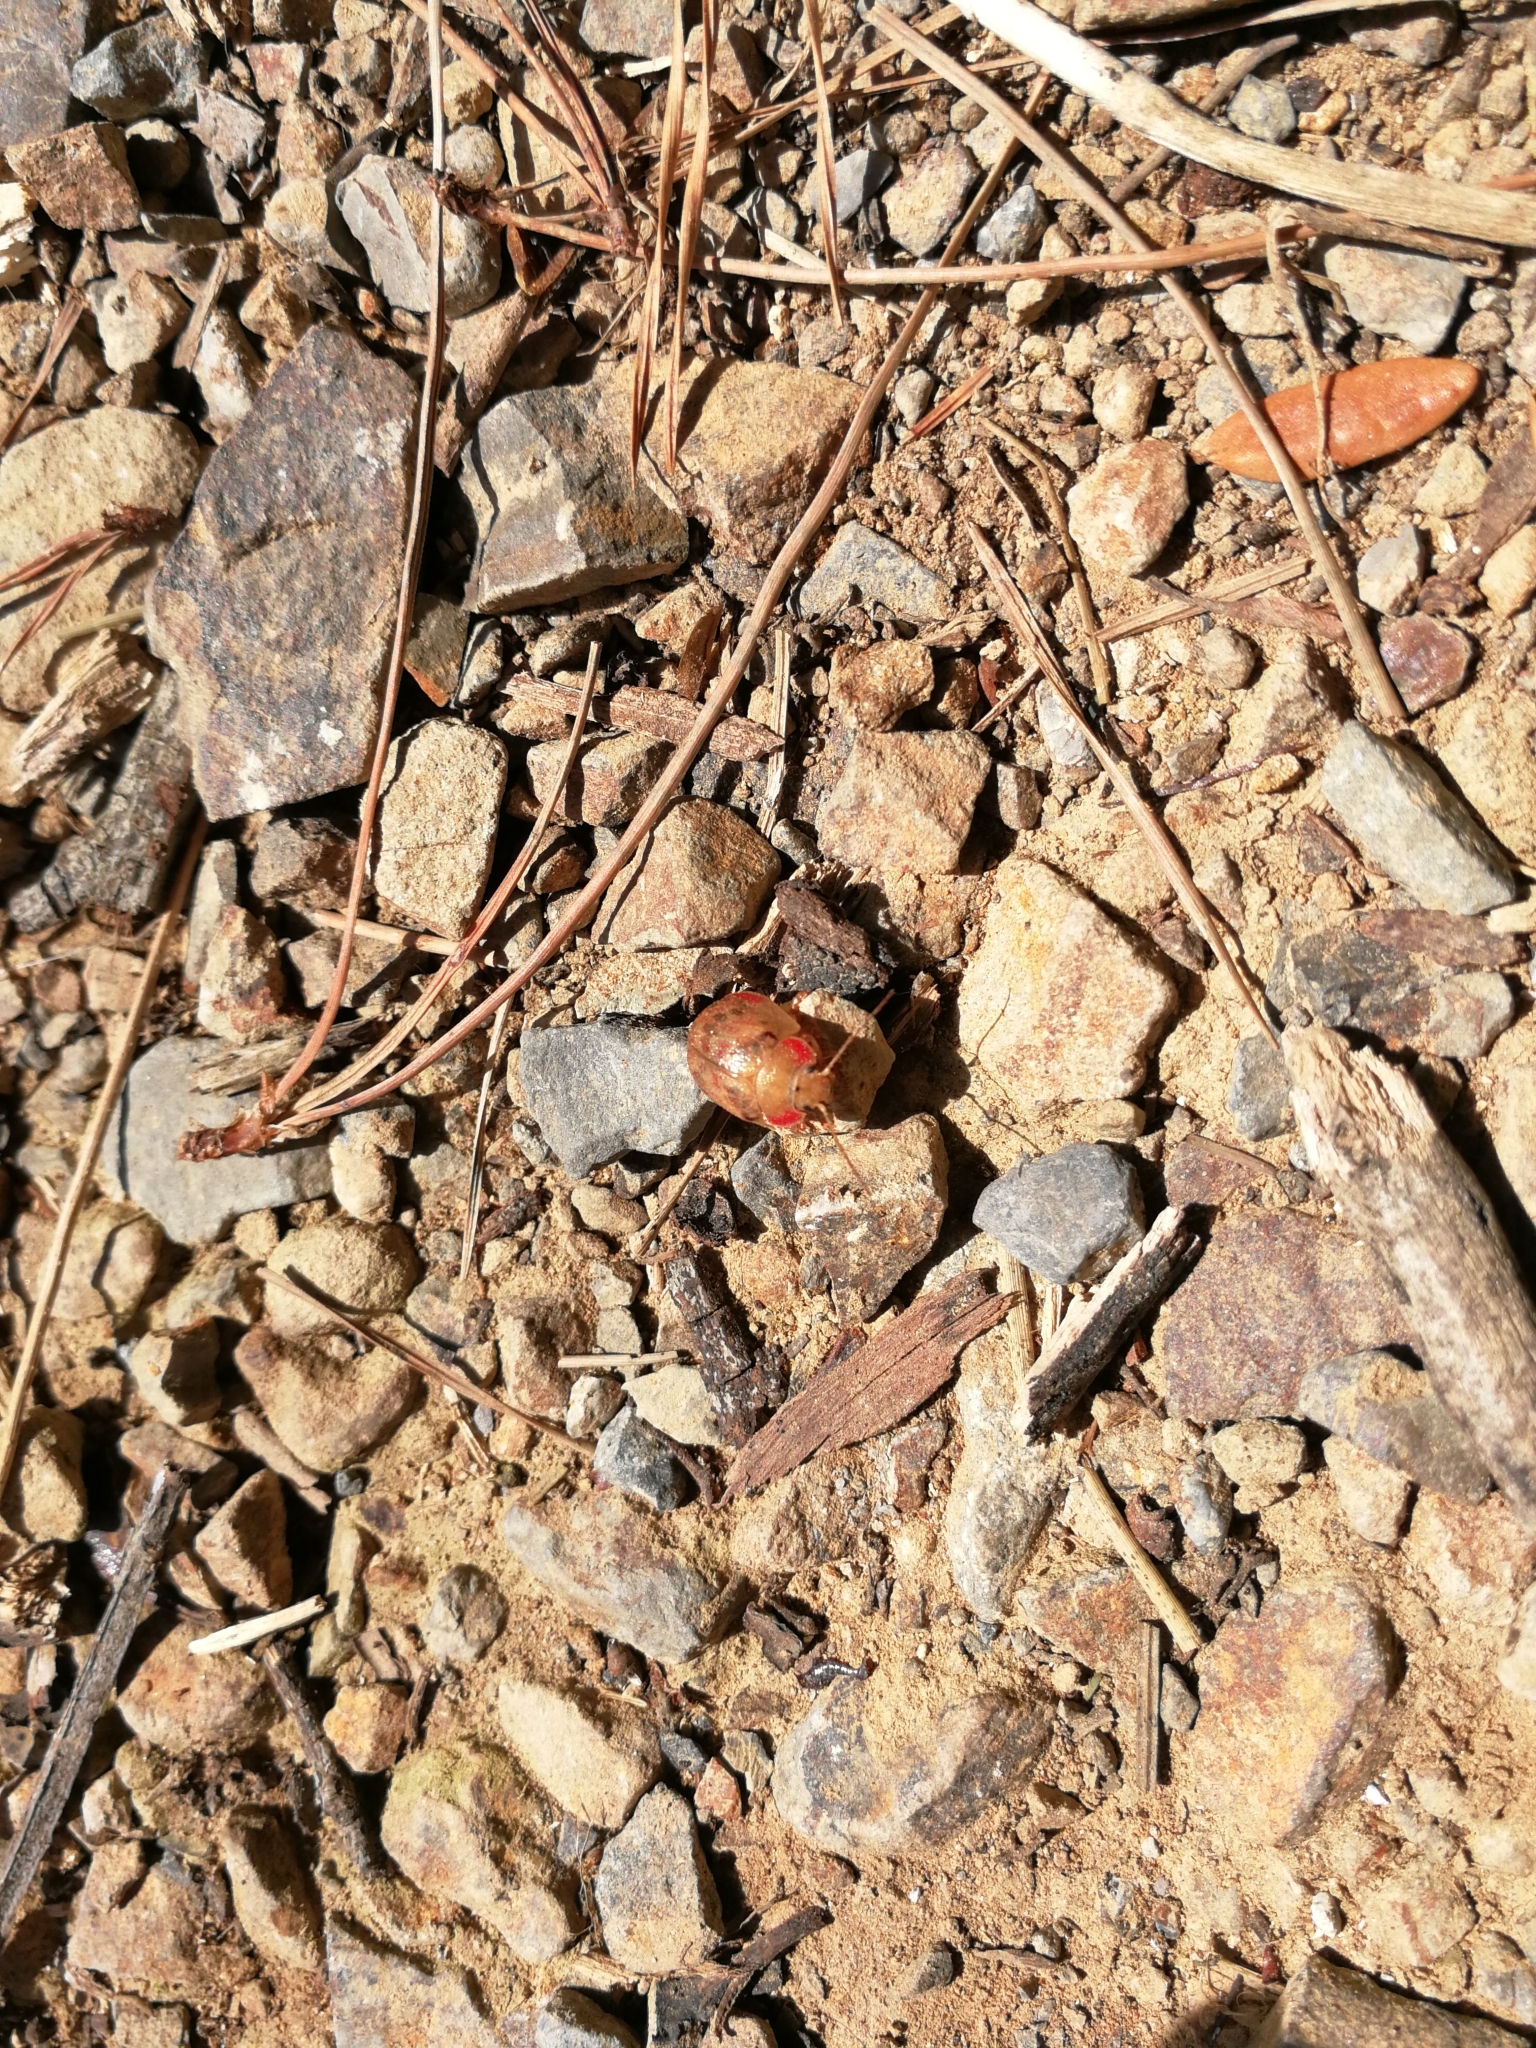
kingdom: Animalia
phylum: Arthropoda
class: Insecta
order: Coleoptera
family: Chrysomelidae
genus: Paropsis
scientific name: Paropsis charybdis
